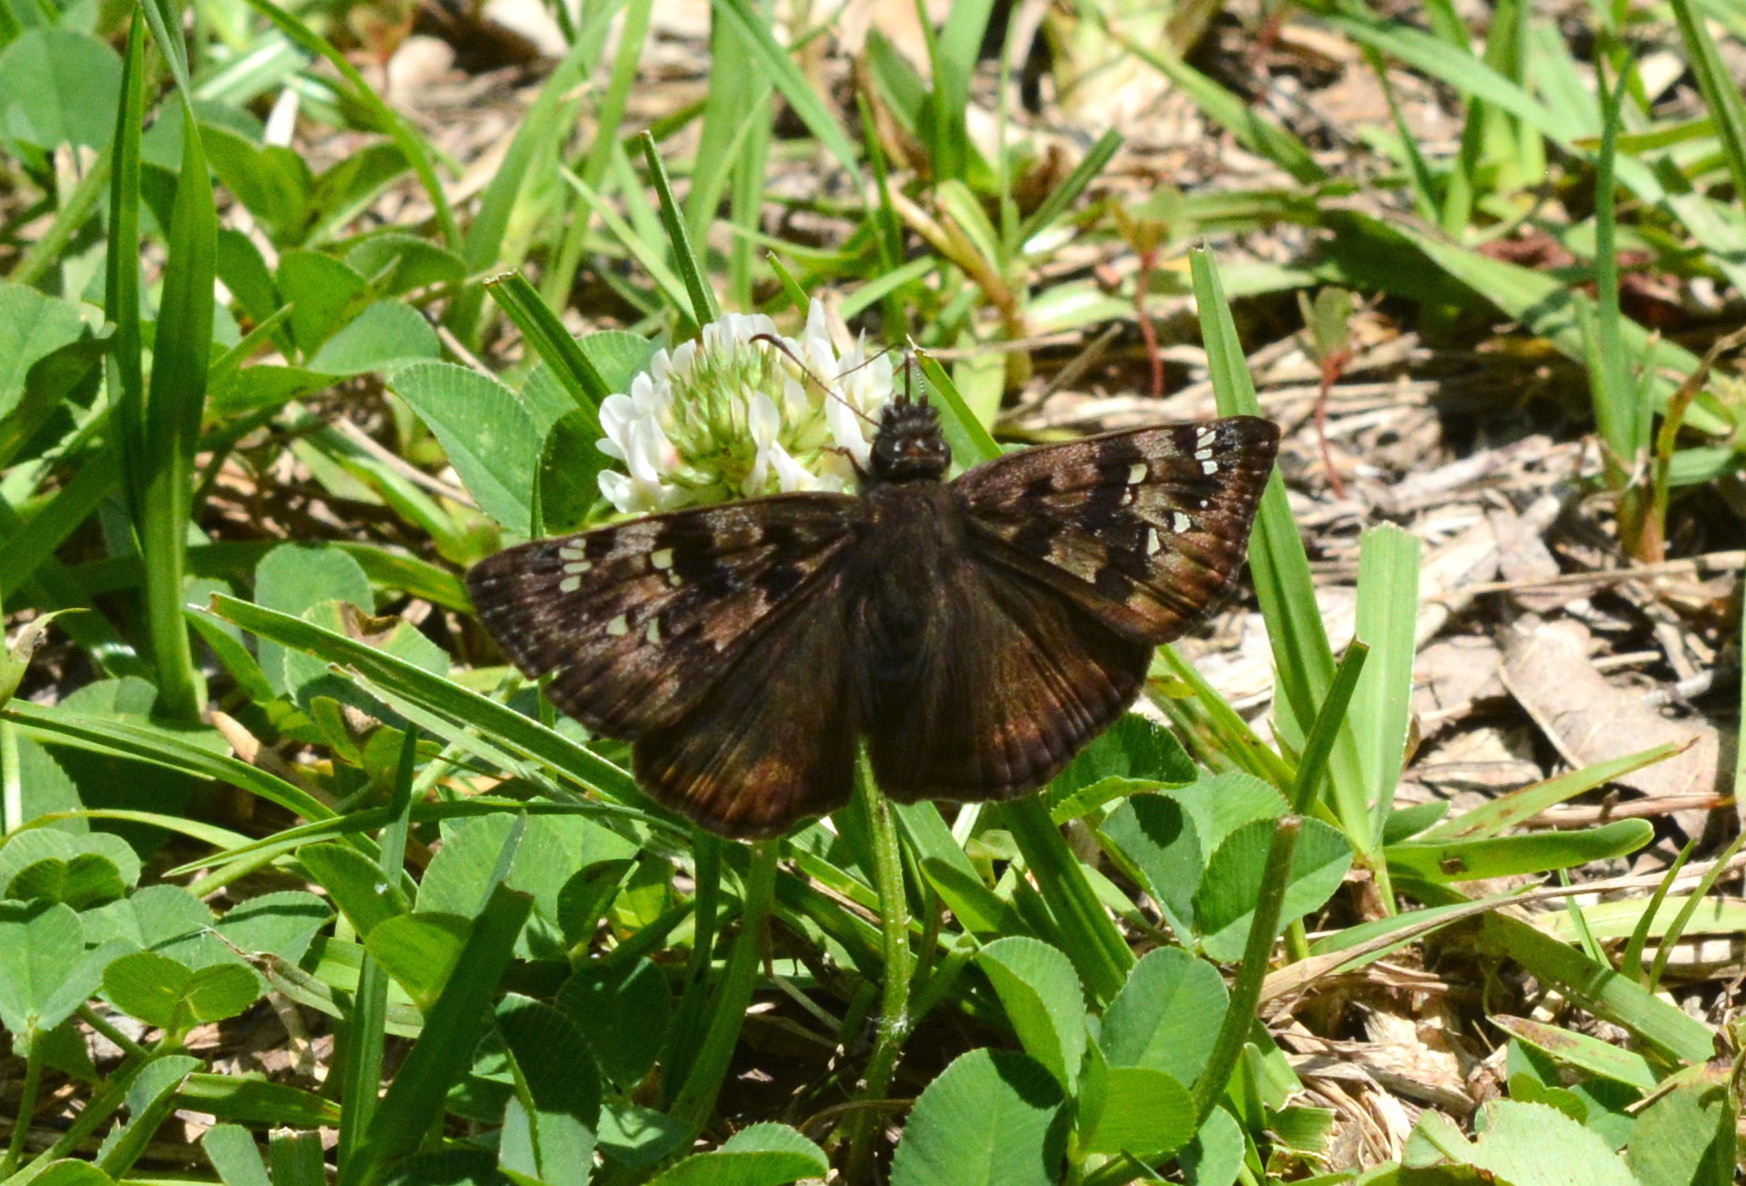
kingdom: Animalia
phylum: Arthropoda
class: Insecta
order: Lepidoptera
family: Hesperiidae
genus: Erynnis
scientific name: Erynnis horatius
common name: Horace's duskywing
